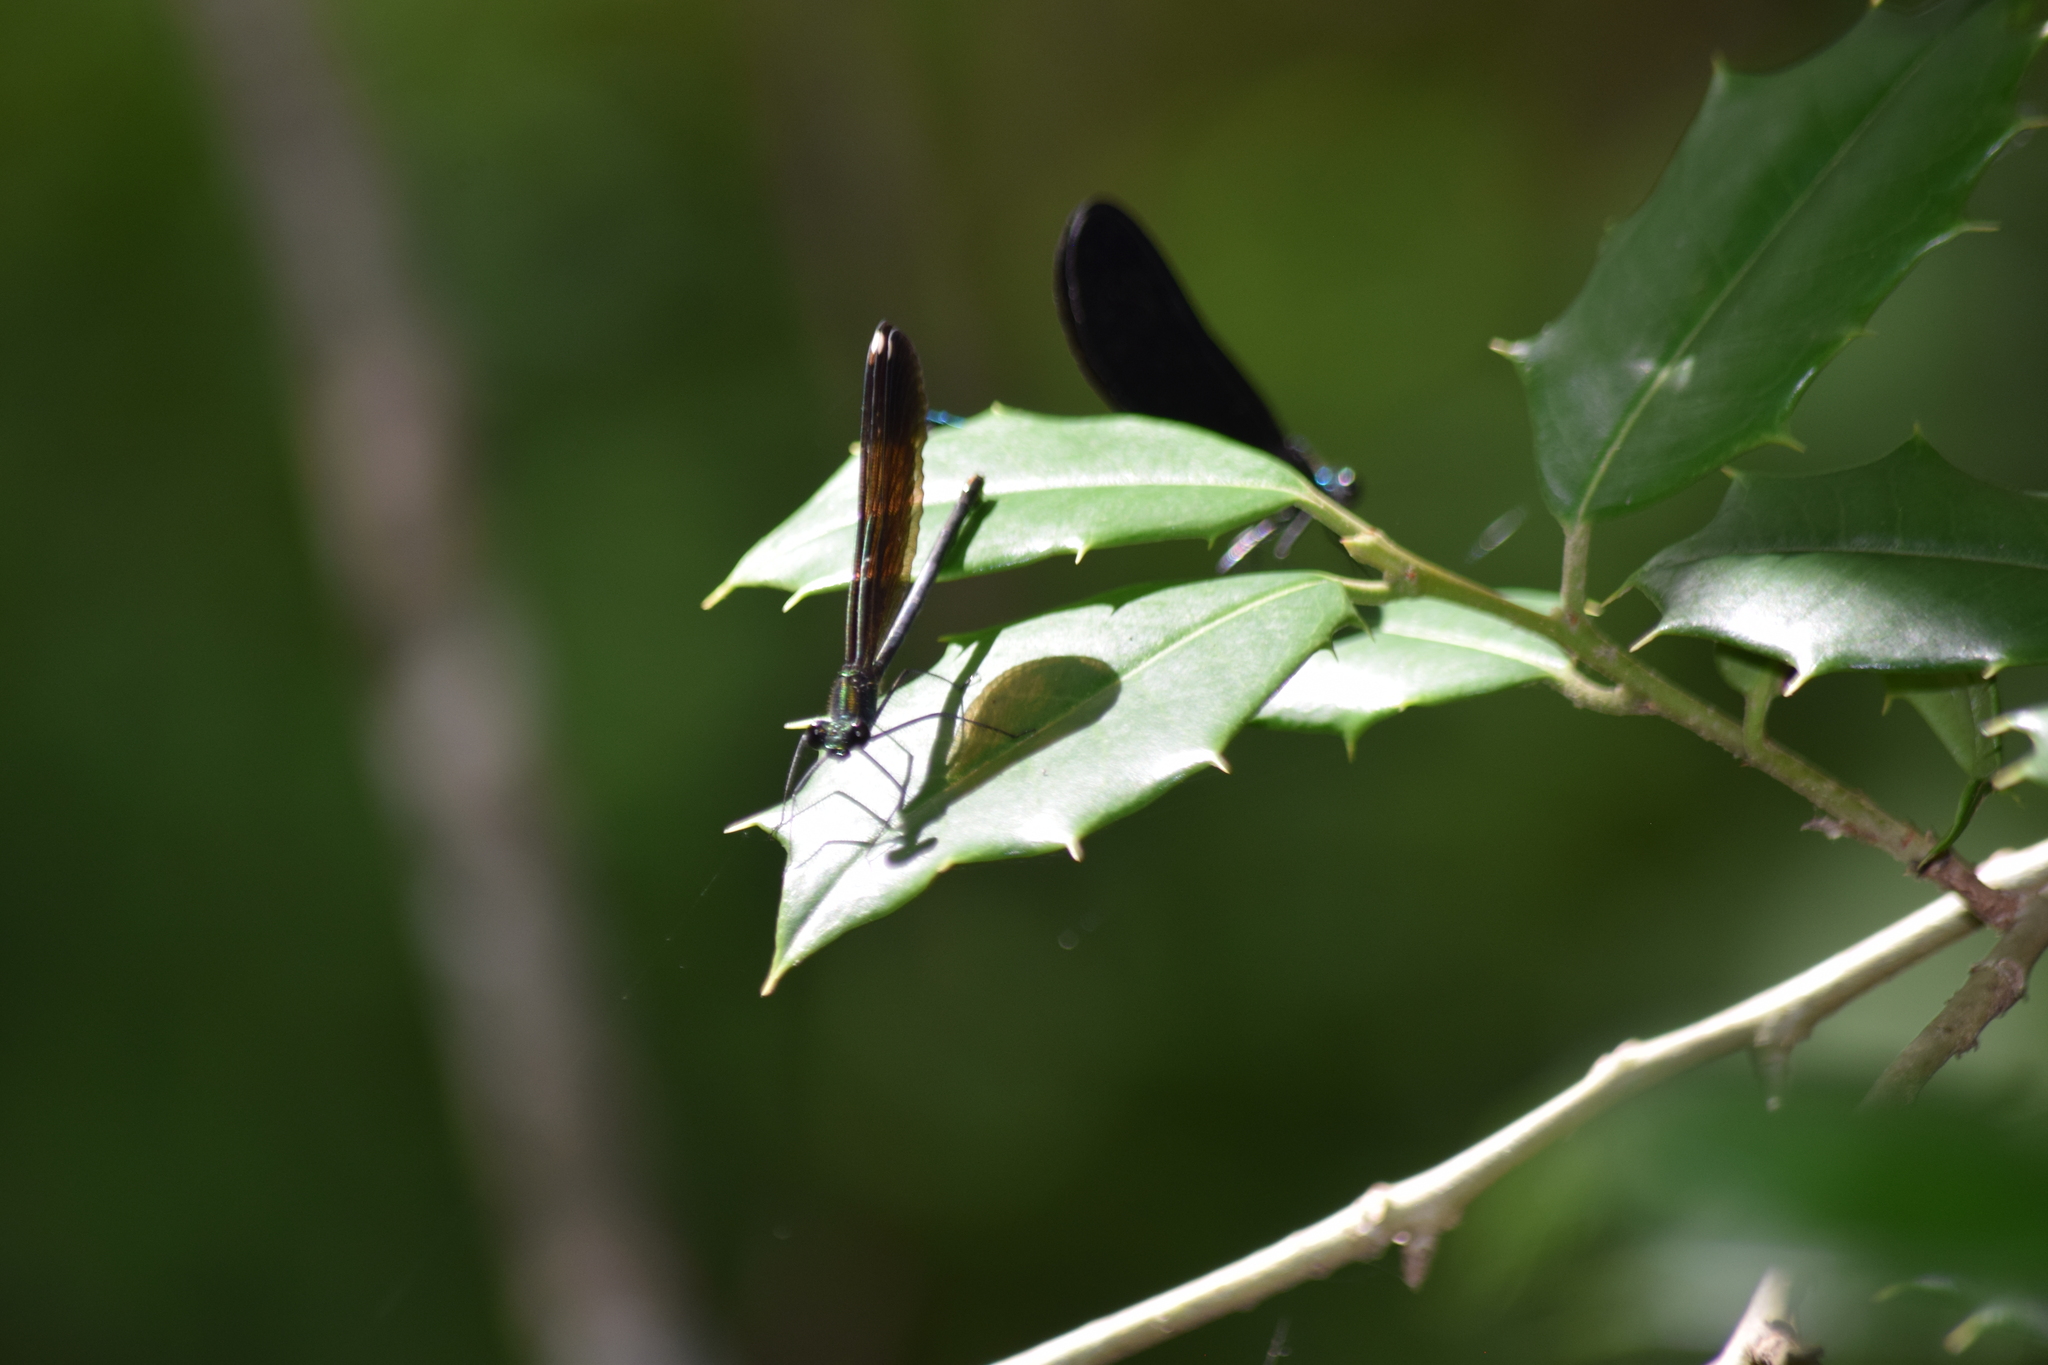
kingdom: Animalia
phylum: Arthropoda
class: Insecta
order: Odonata
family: Calopterygidae
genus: Calopteryx
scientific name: Calopteryx maculata
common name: Ebony jewelwing
